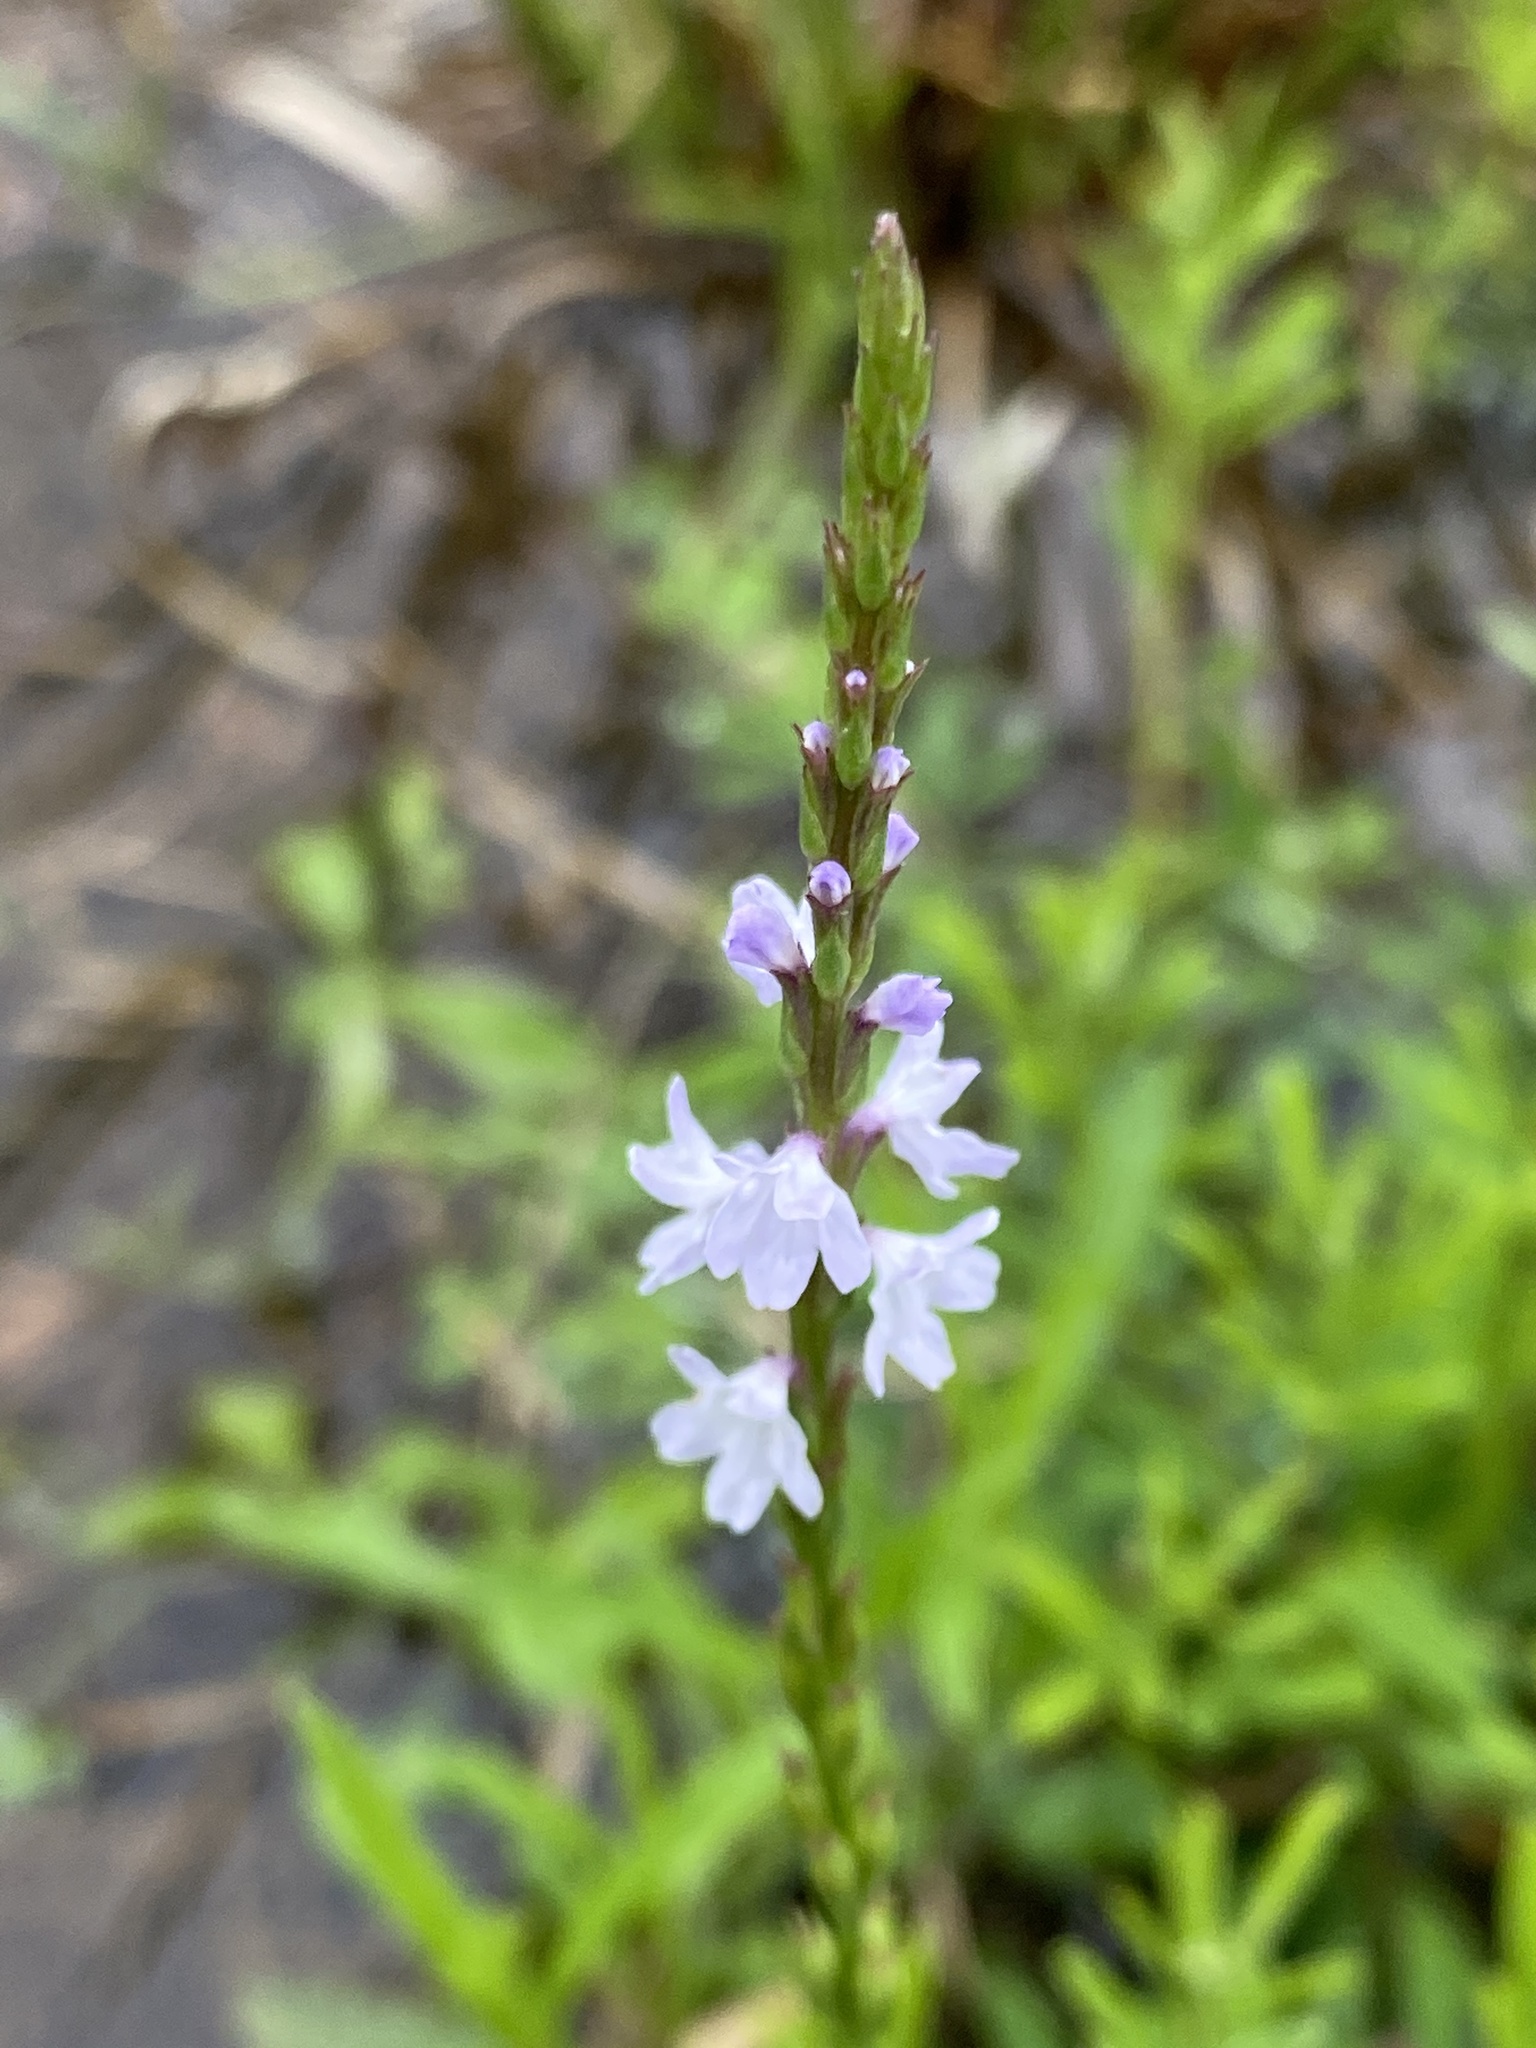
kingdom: Plantae
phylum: Tracheophyta
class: Magnoliopsida
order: Lamiales
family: Verbenaceae
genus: Verbena
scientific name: Verbena simplex
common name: Narrow-leaf vervain
